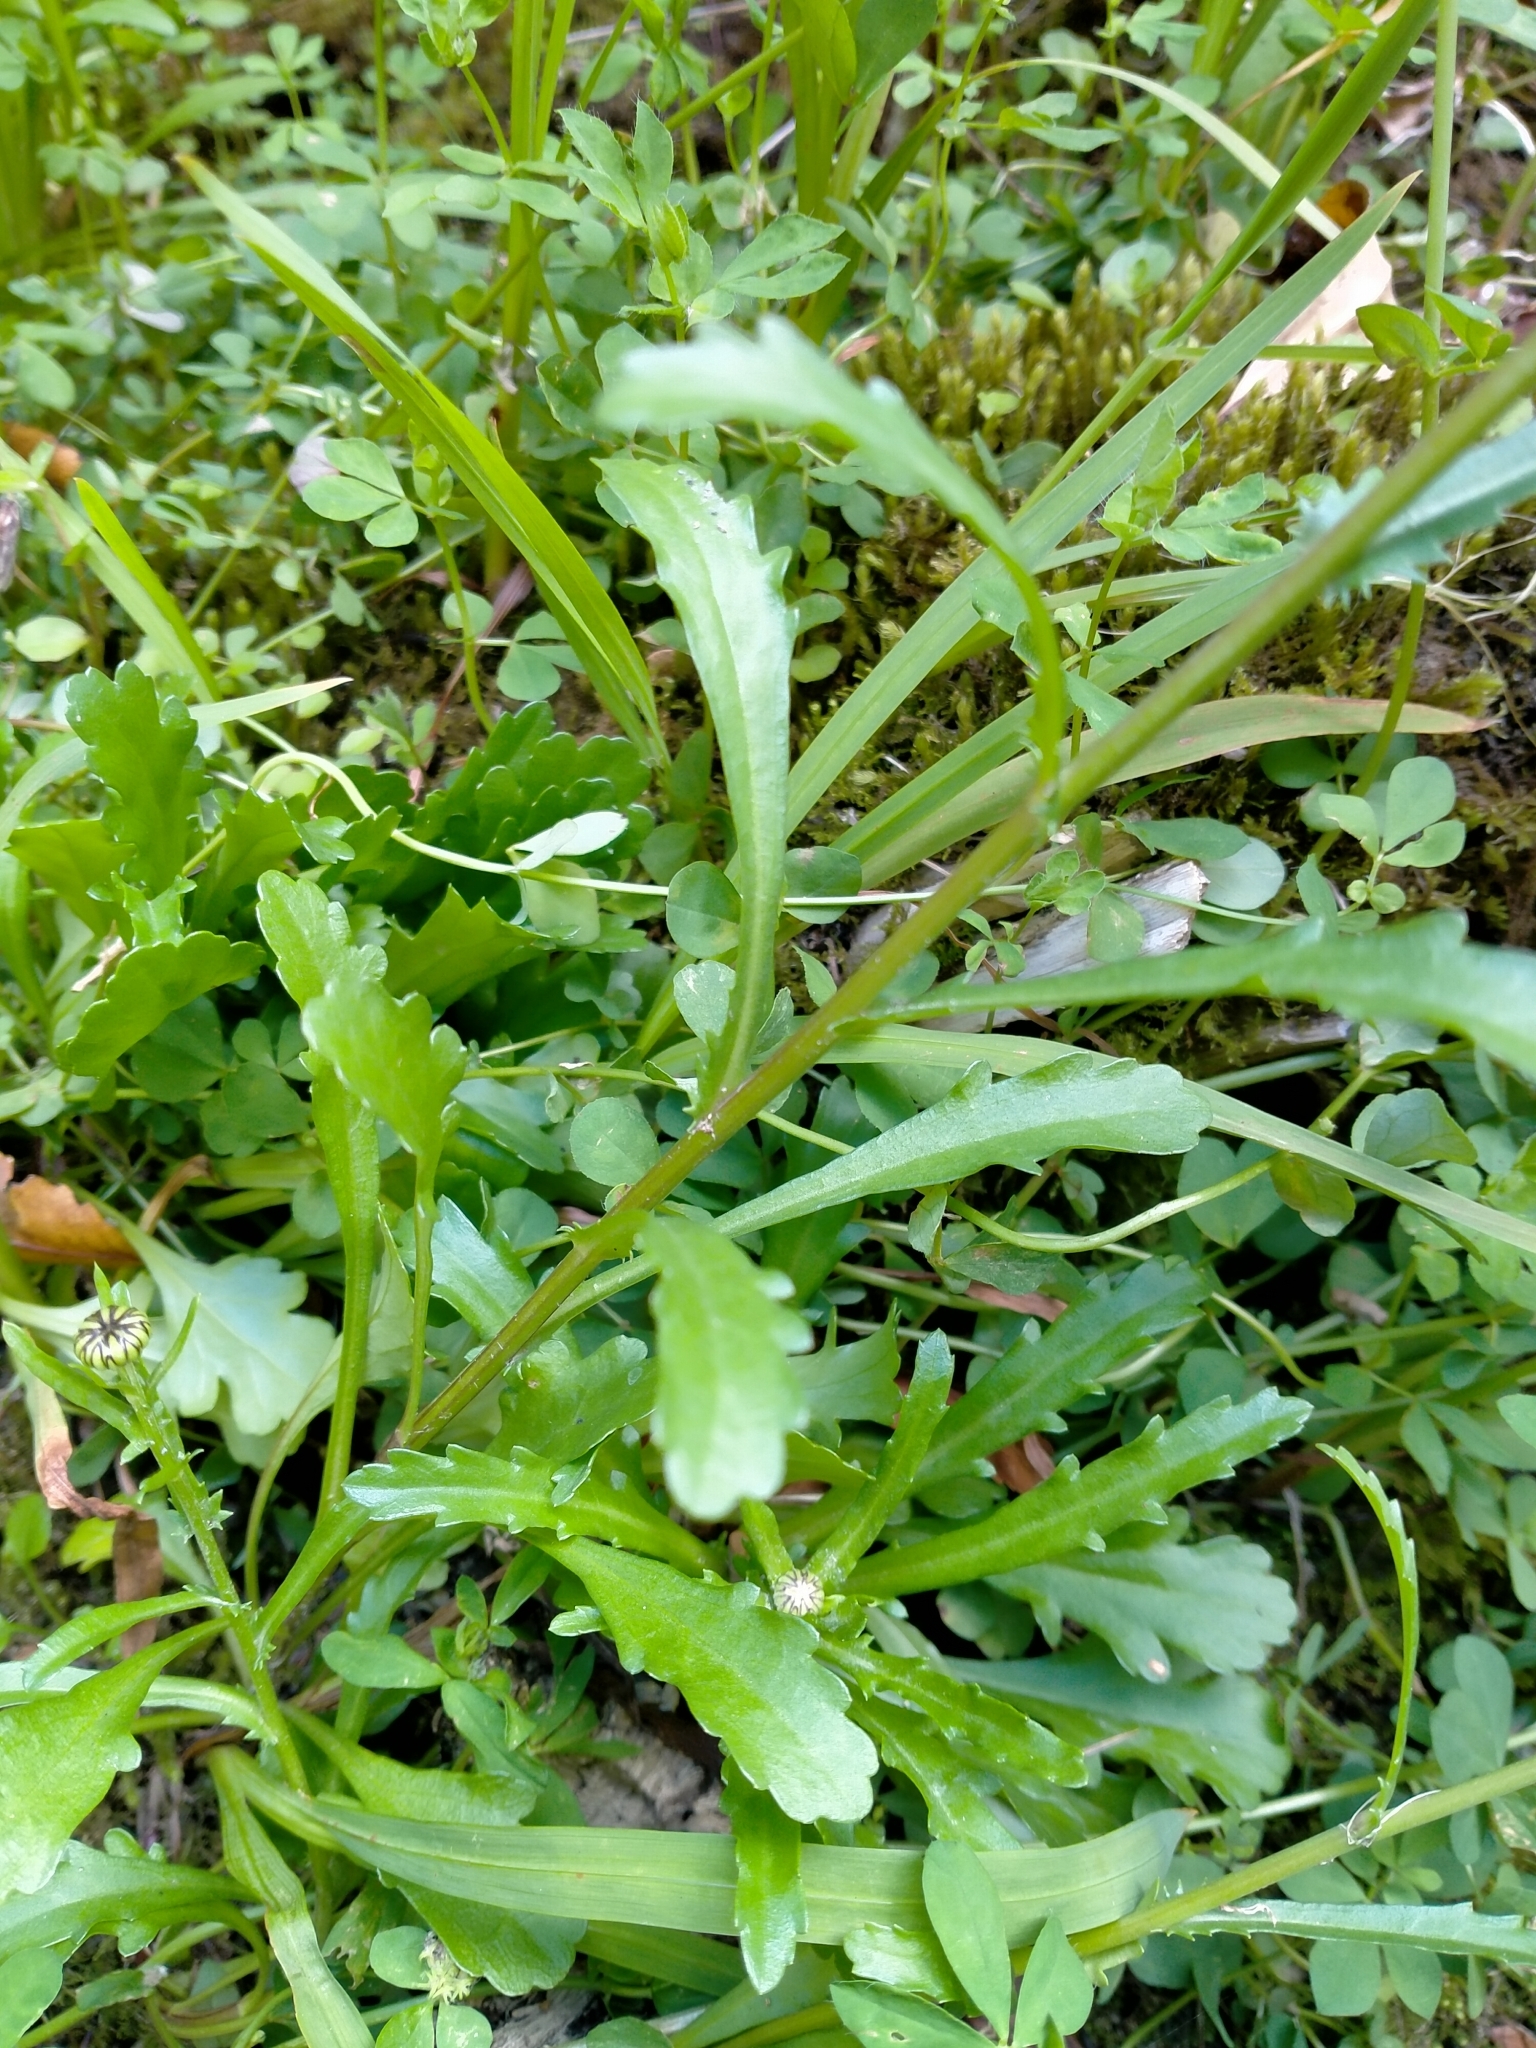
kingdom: Plantae
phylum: Tracheophyta
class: Magnoliopsida
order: Asterales
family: Asteraceae
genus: Leucanthemum
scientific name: Leucanthemum vulgare
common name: Oxeye daisy
